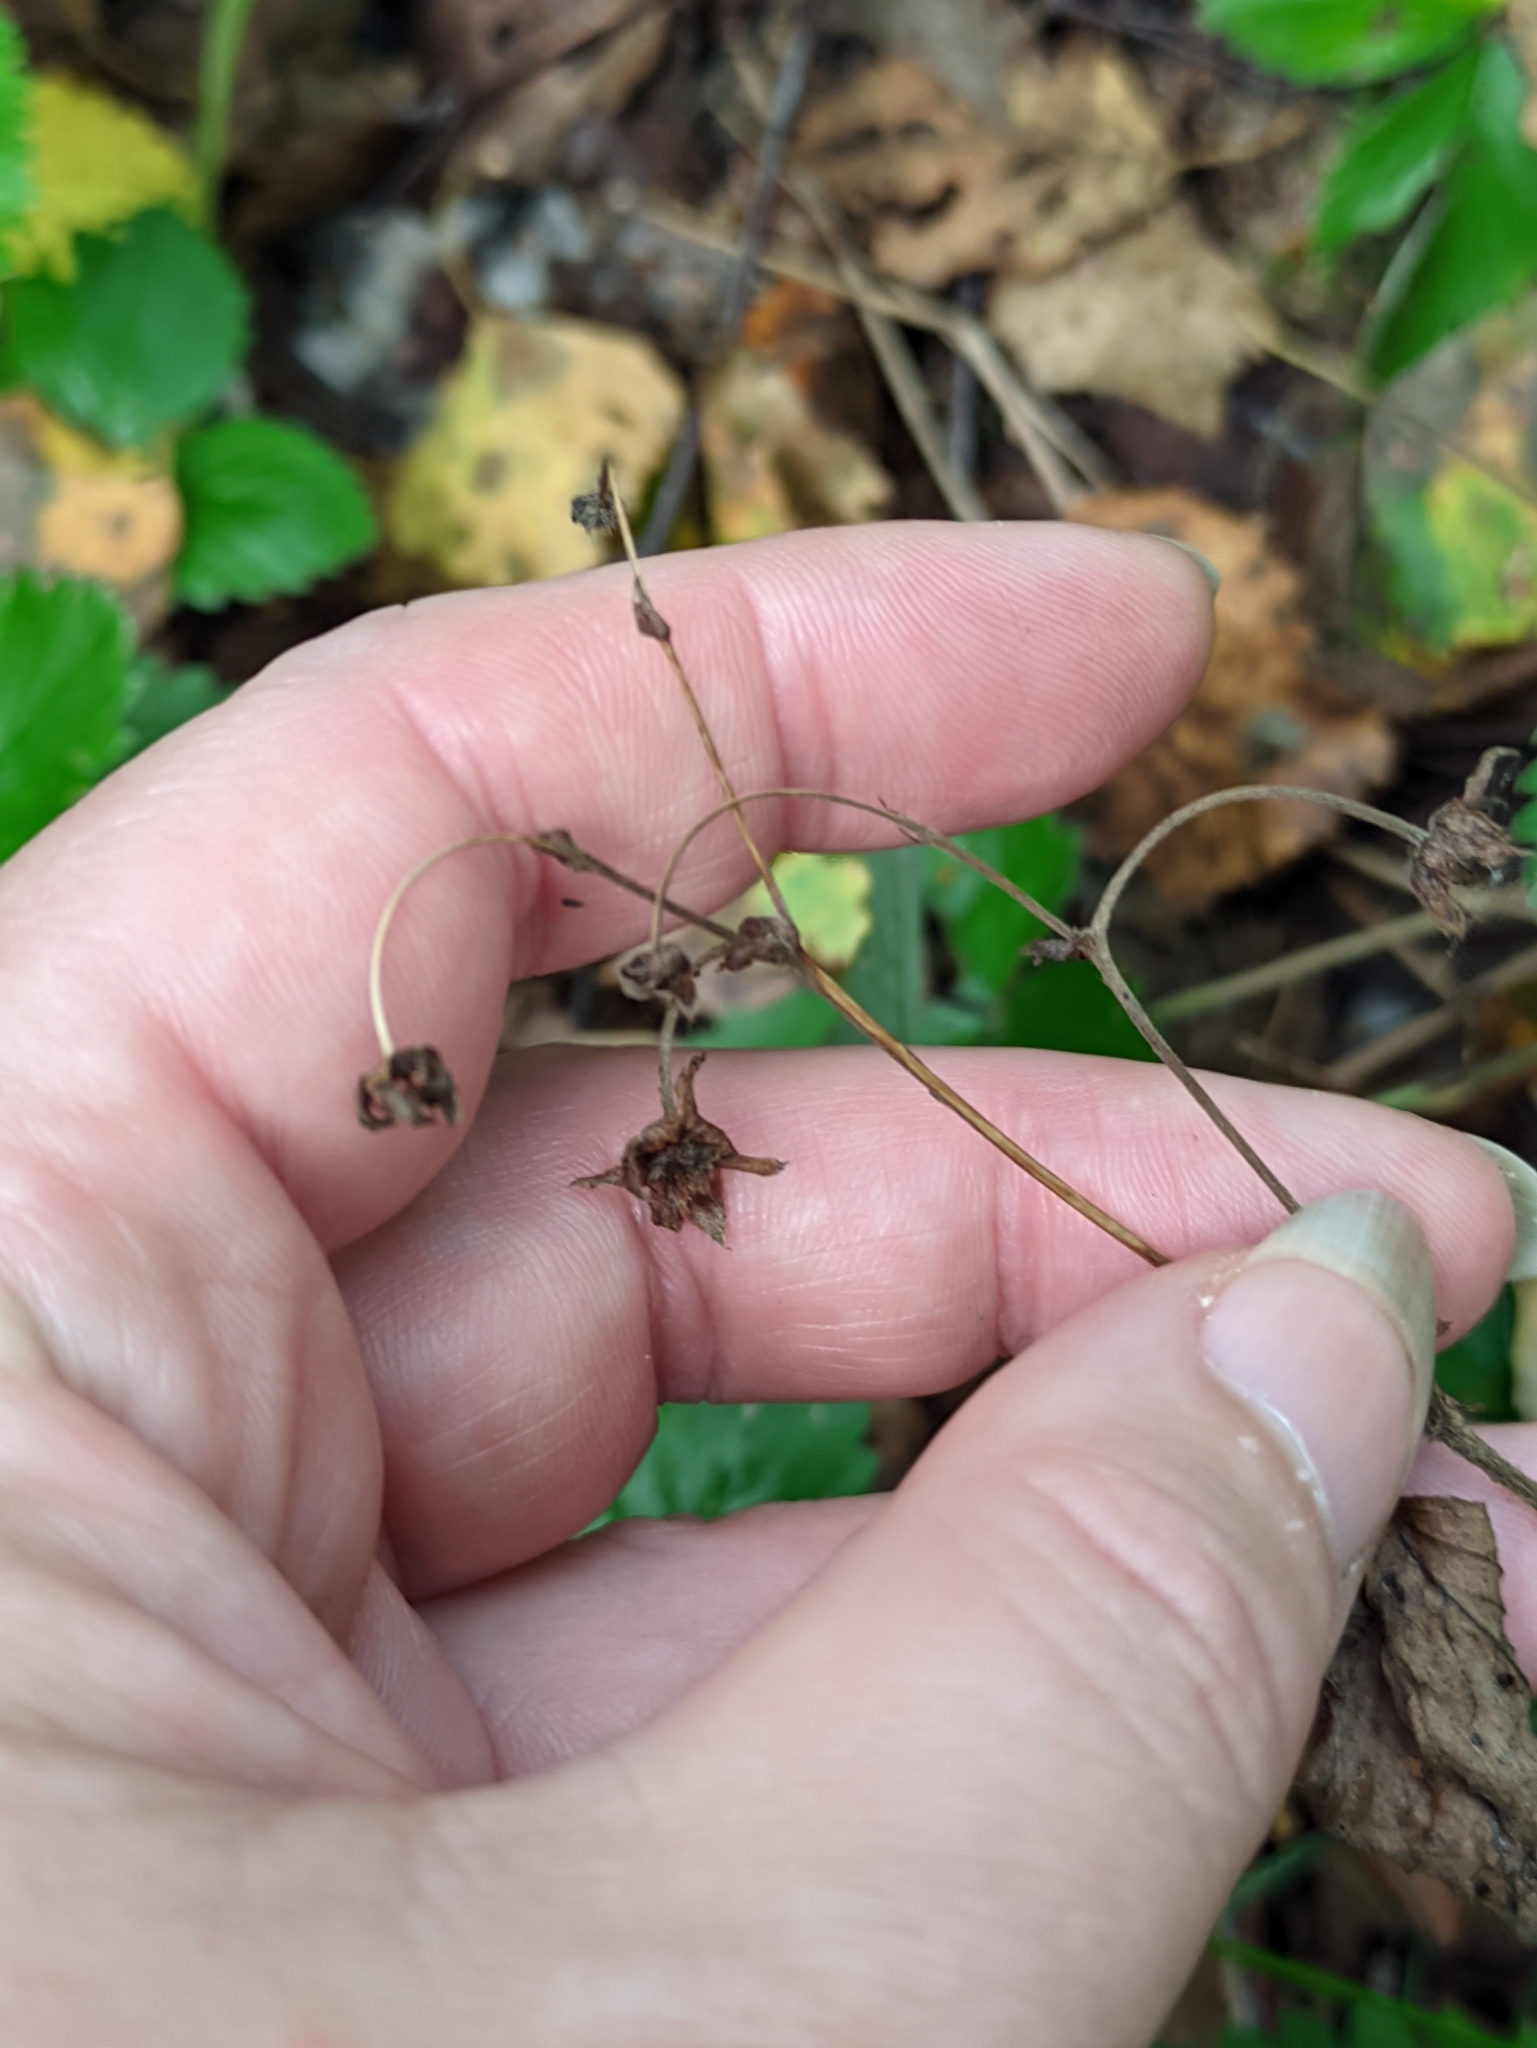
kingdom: Plantae
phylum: Tracheophyta
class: Magnoliopsida
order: Rosales
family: Rosaceae
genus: Fragaria
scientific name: Fragaria vesca
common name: Wild strawberry
